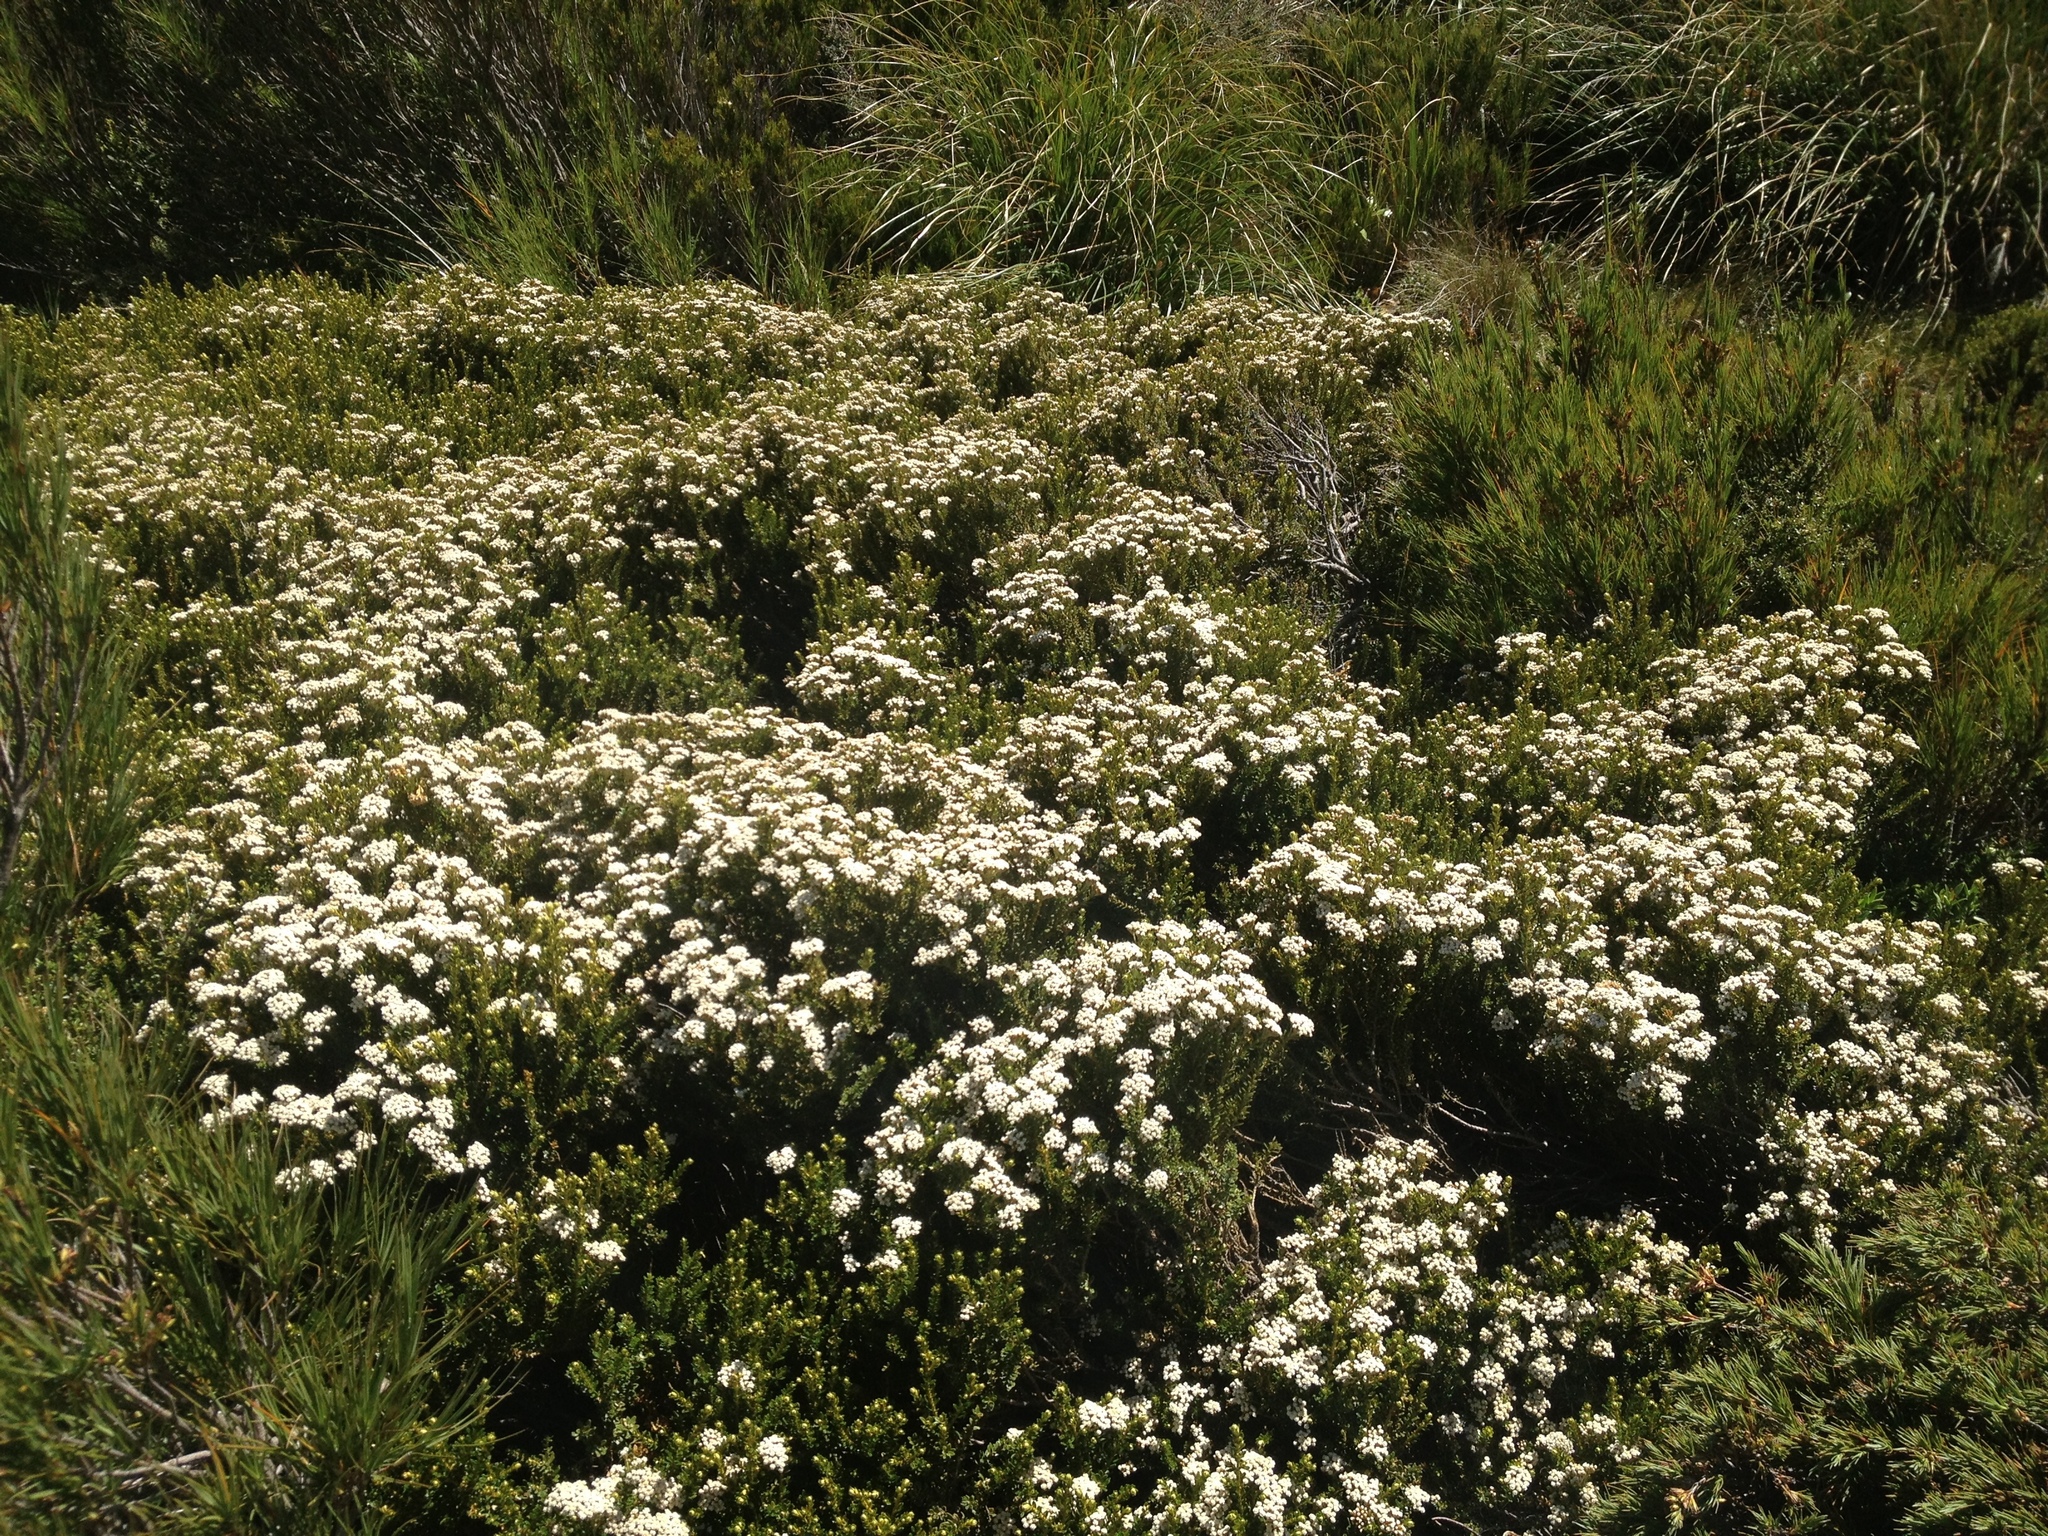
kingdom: Plantae
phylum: Tracheophyta
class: Magnoliopsida
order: Asterales
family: Asteraceae
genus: Ozothamnus
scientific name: Ozothamnus leptophyllus
